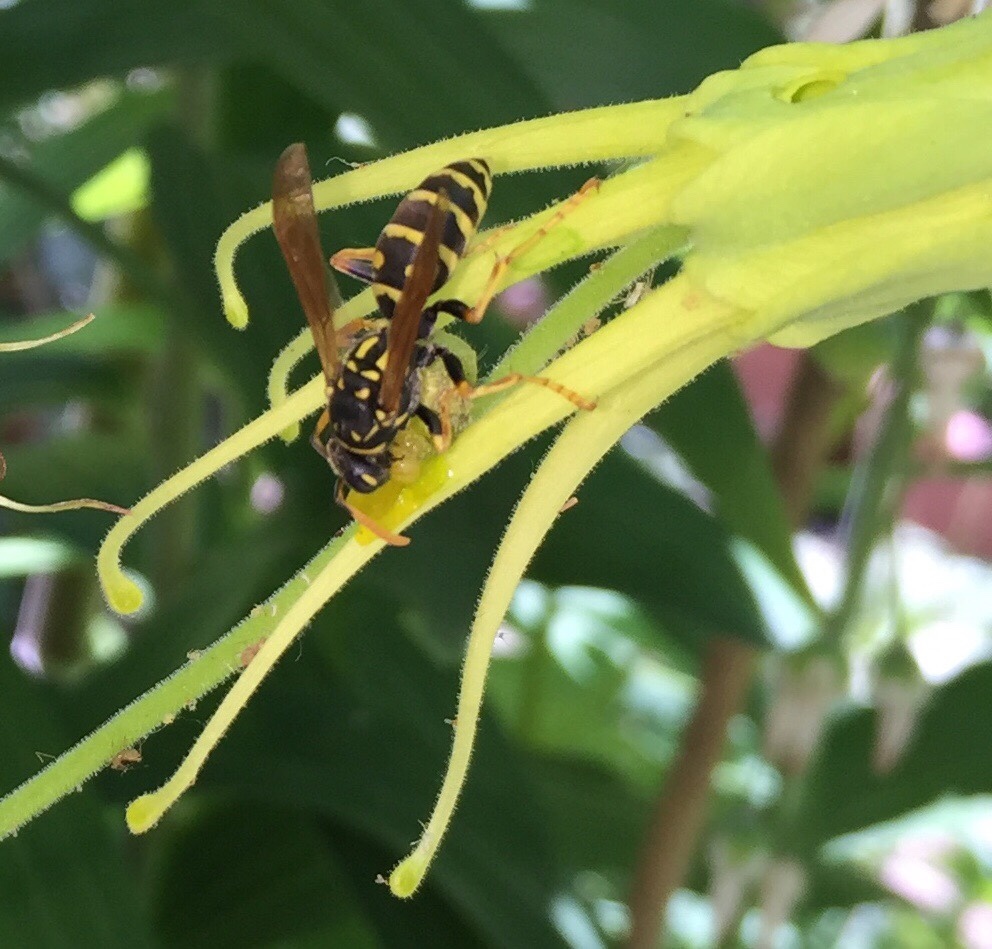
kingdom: Animalia
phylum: Arthropoda
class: Insecta
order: Hymenoptera
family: Eumenidae
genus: Polistes
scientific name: Polistes dominula
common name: Paper wasp
